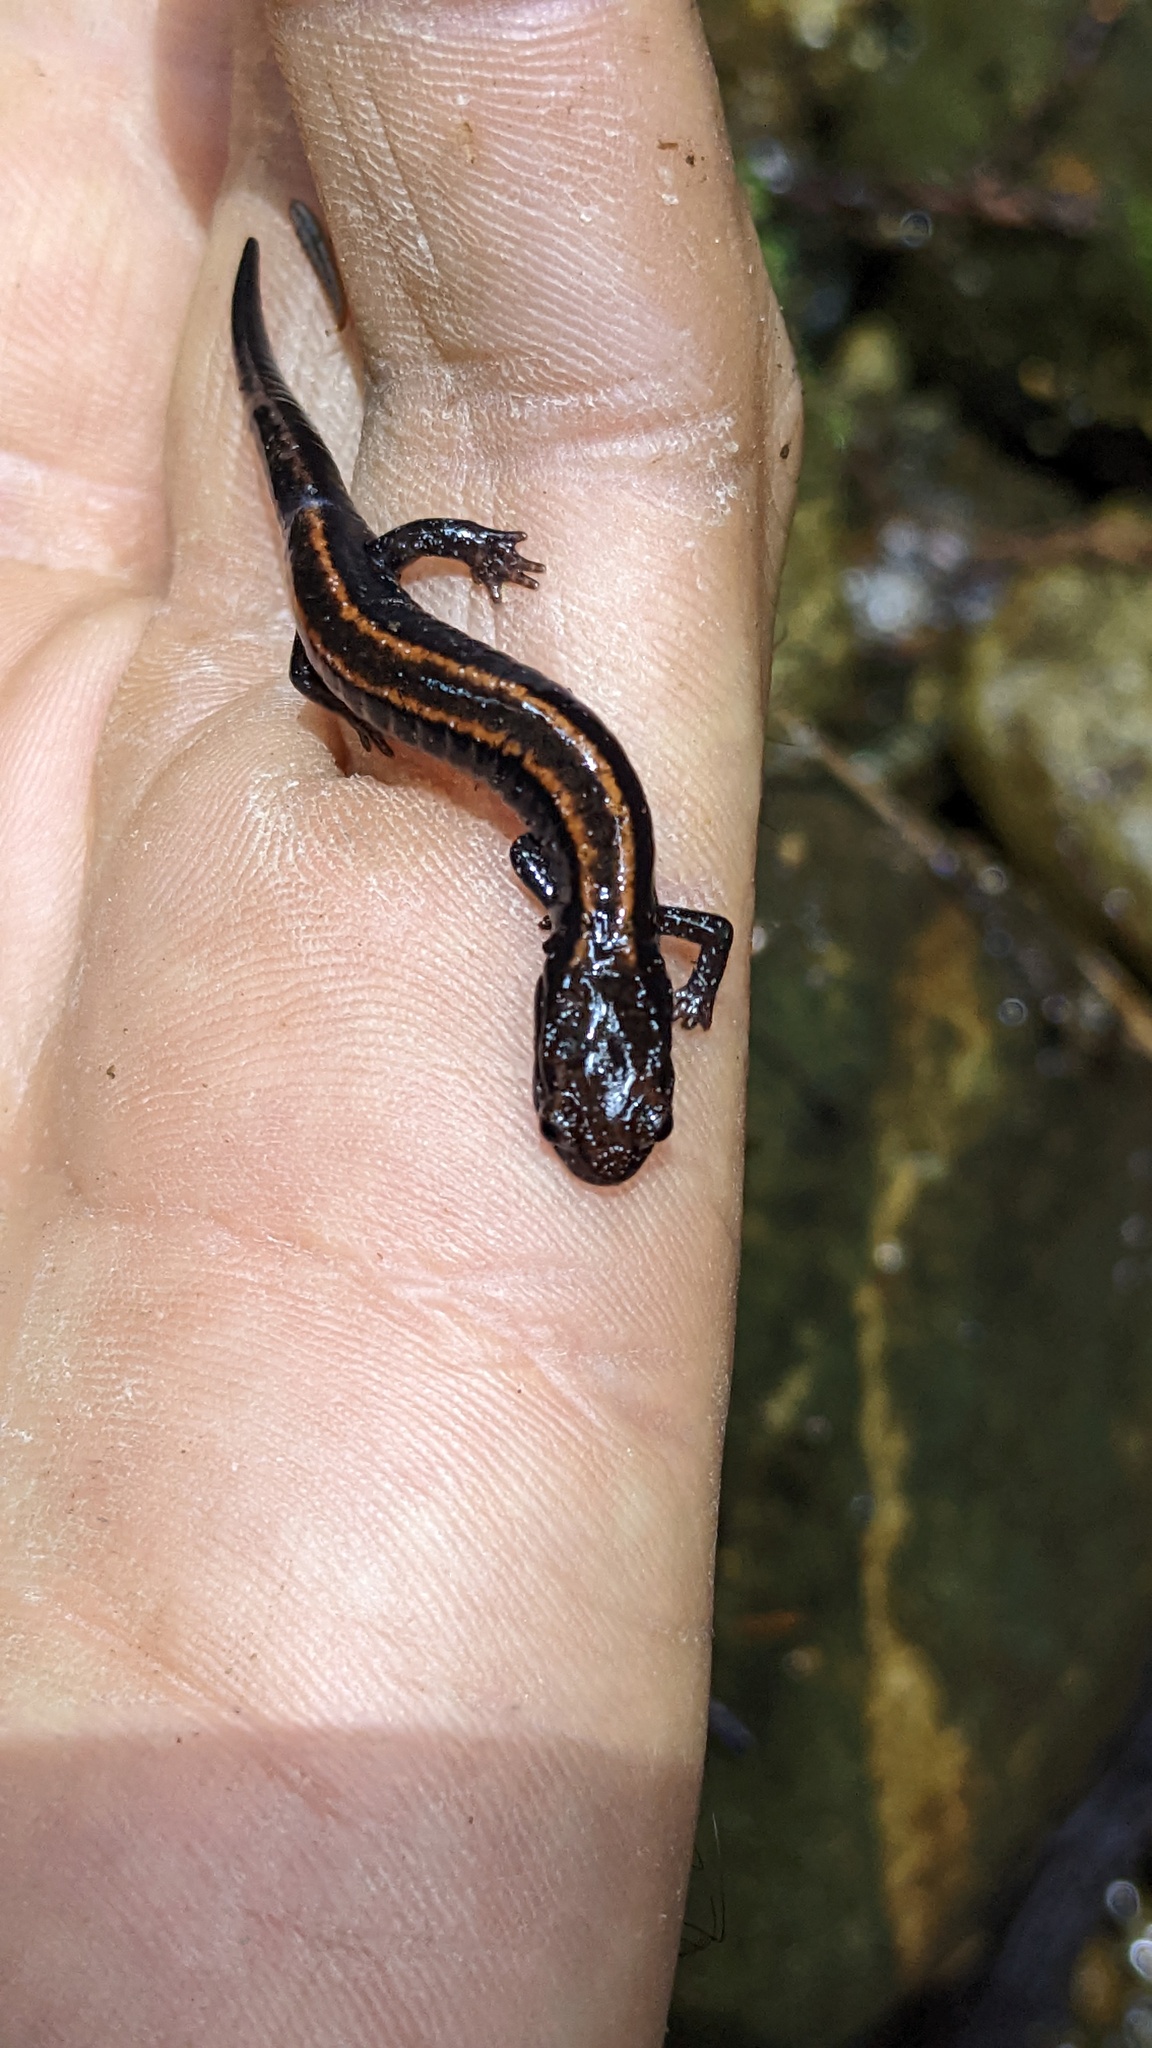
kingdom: Animalia
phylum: Chordata
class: Amphibia
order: Caudata
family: Plethodontidae
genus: Plethodon
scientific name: Plethodon elongatus
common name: Del norte salamander
